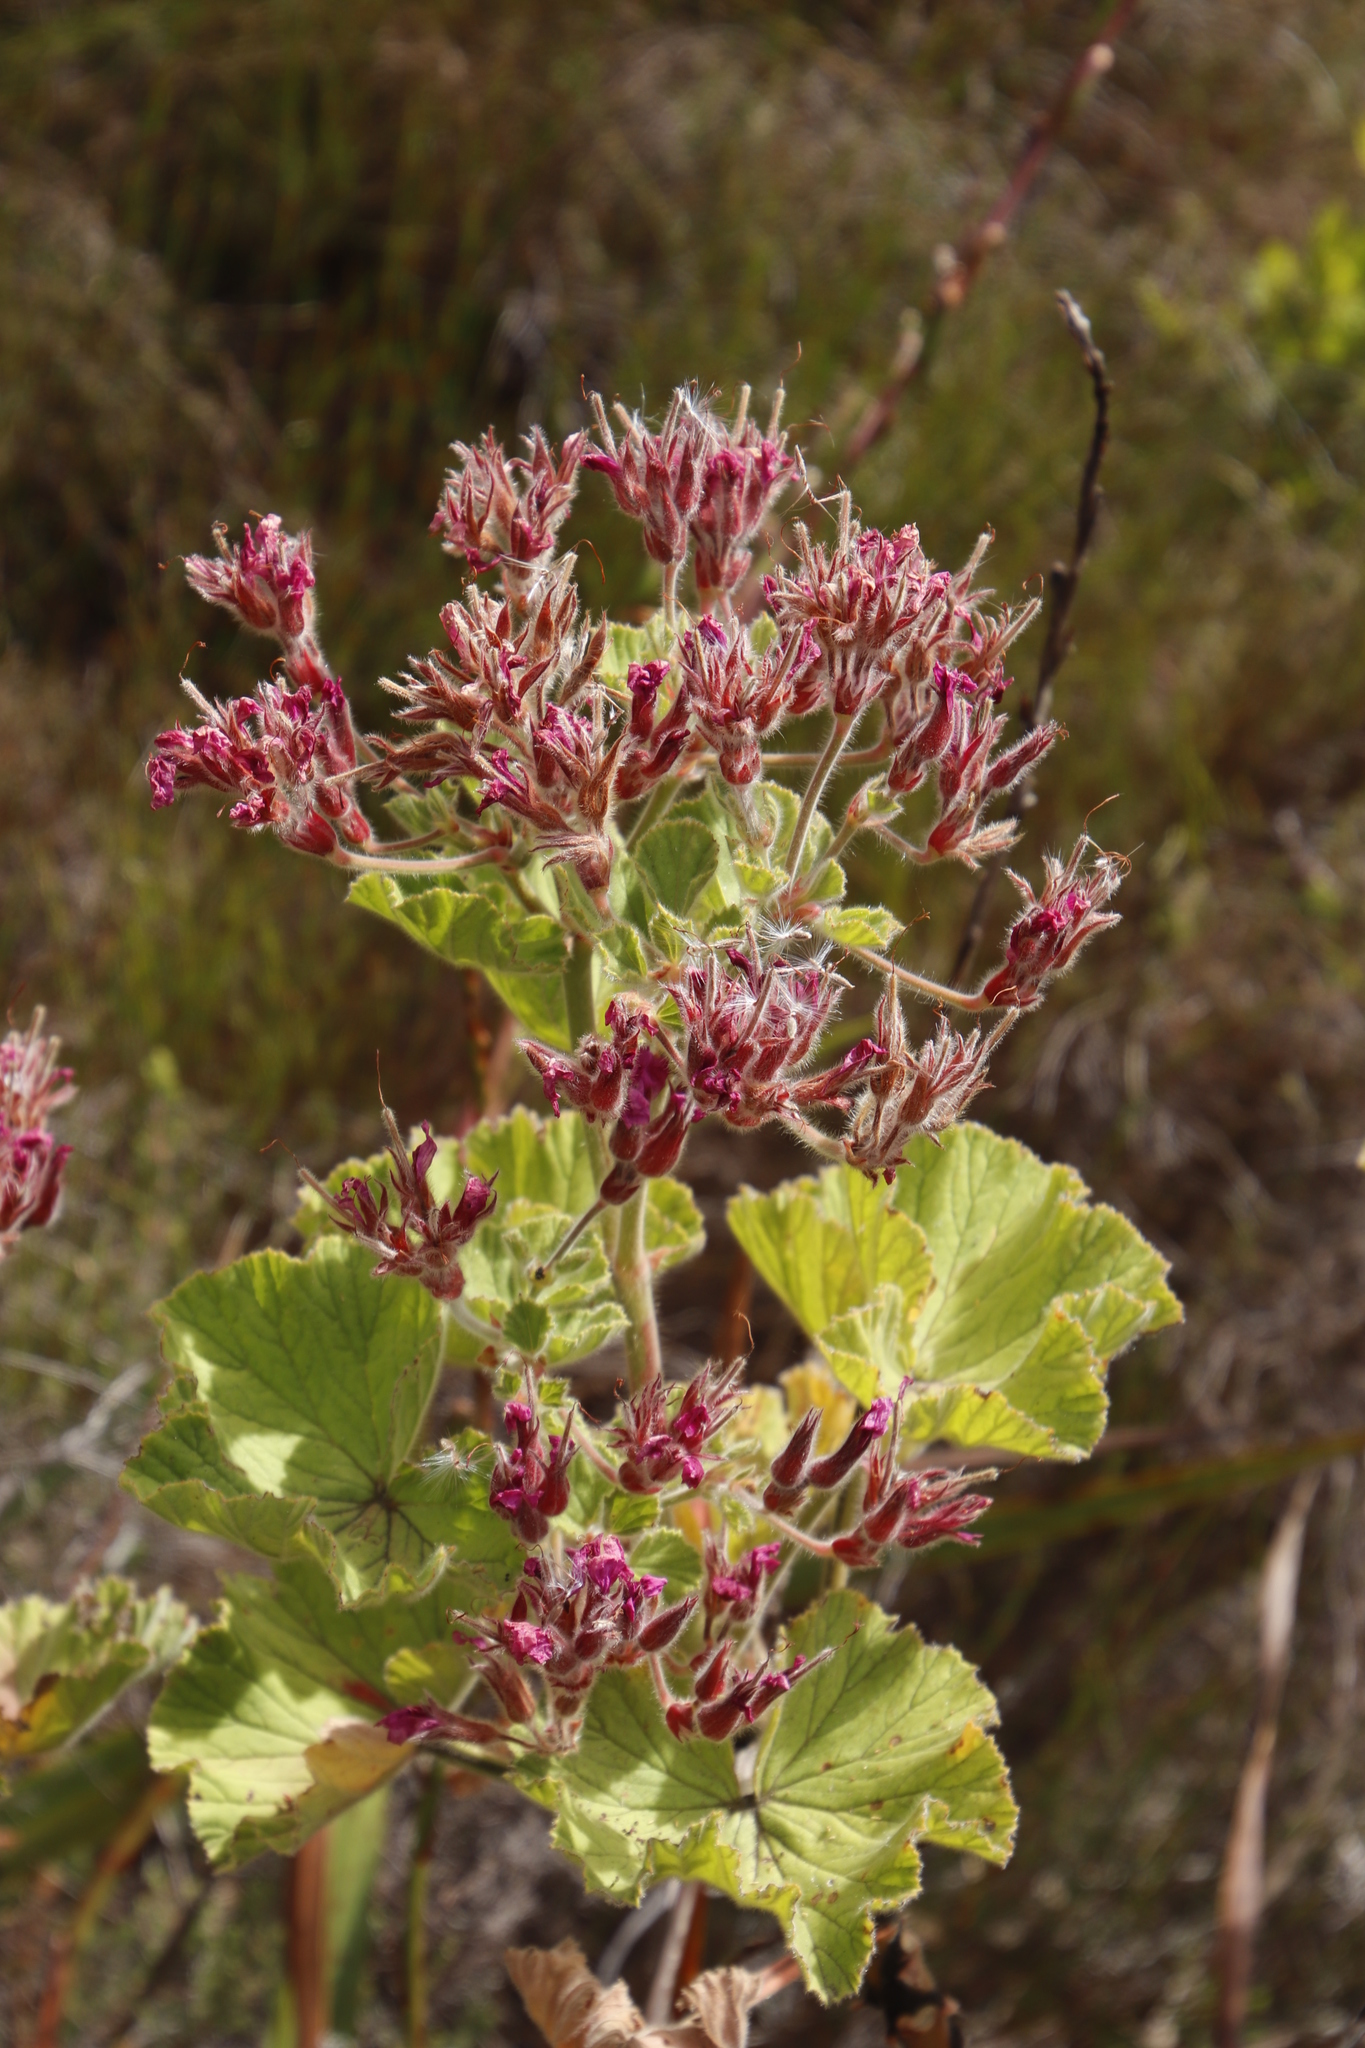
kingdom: Plantae
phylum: Tracheophyta
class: Magnoliopsida
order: Geraniales
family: Geraniaceae
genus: Pelargonium
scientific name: Pelargonium cucullatum
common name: Tree pelargonium
